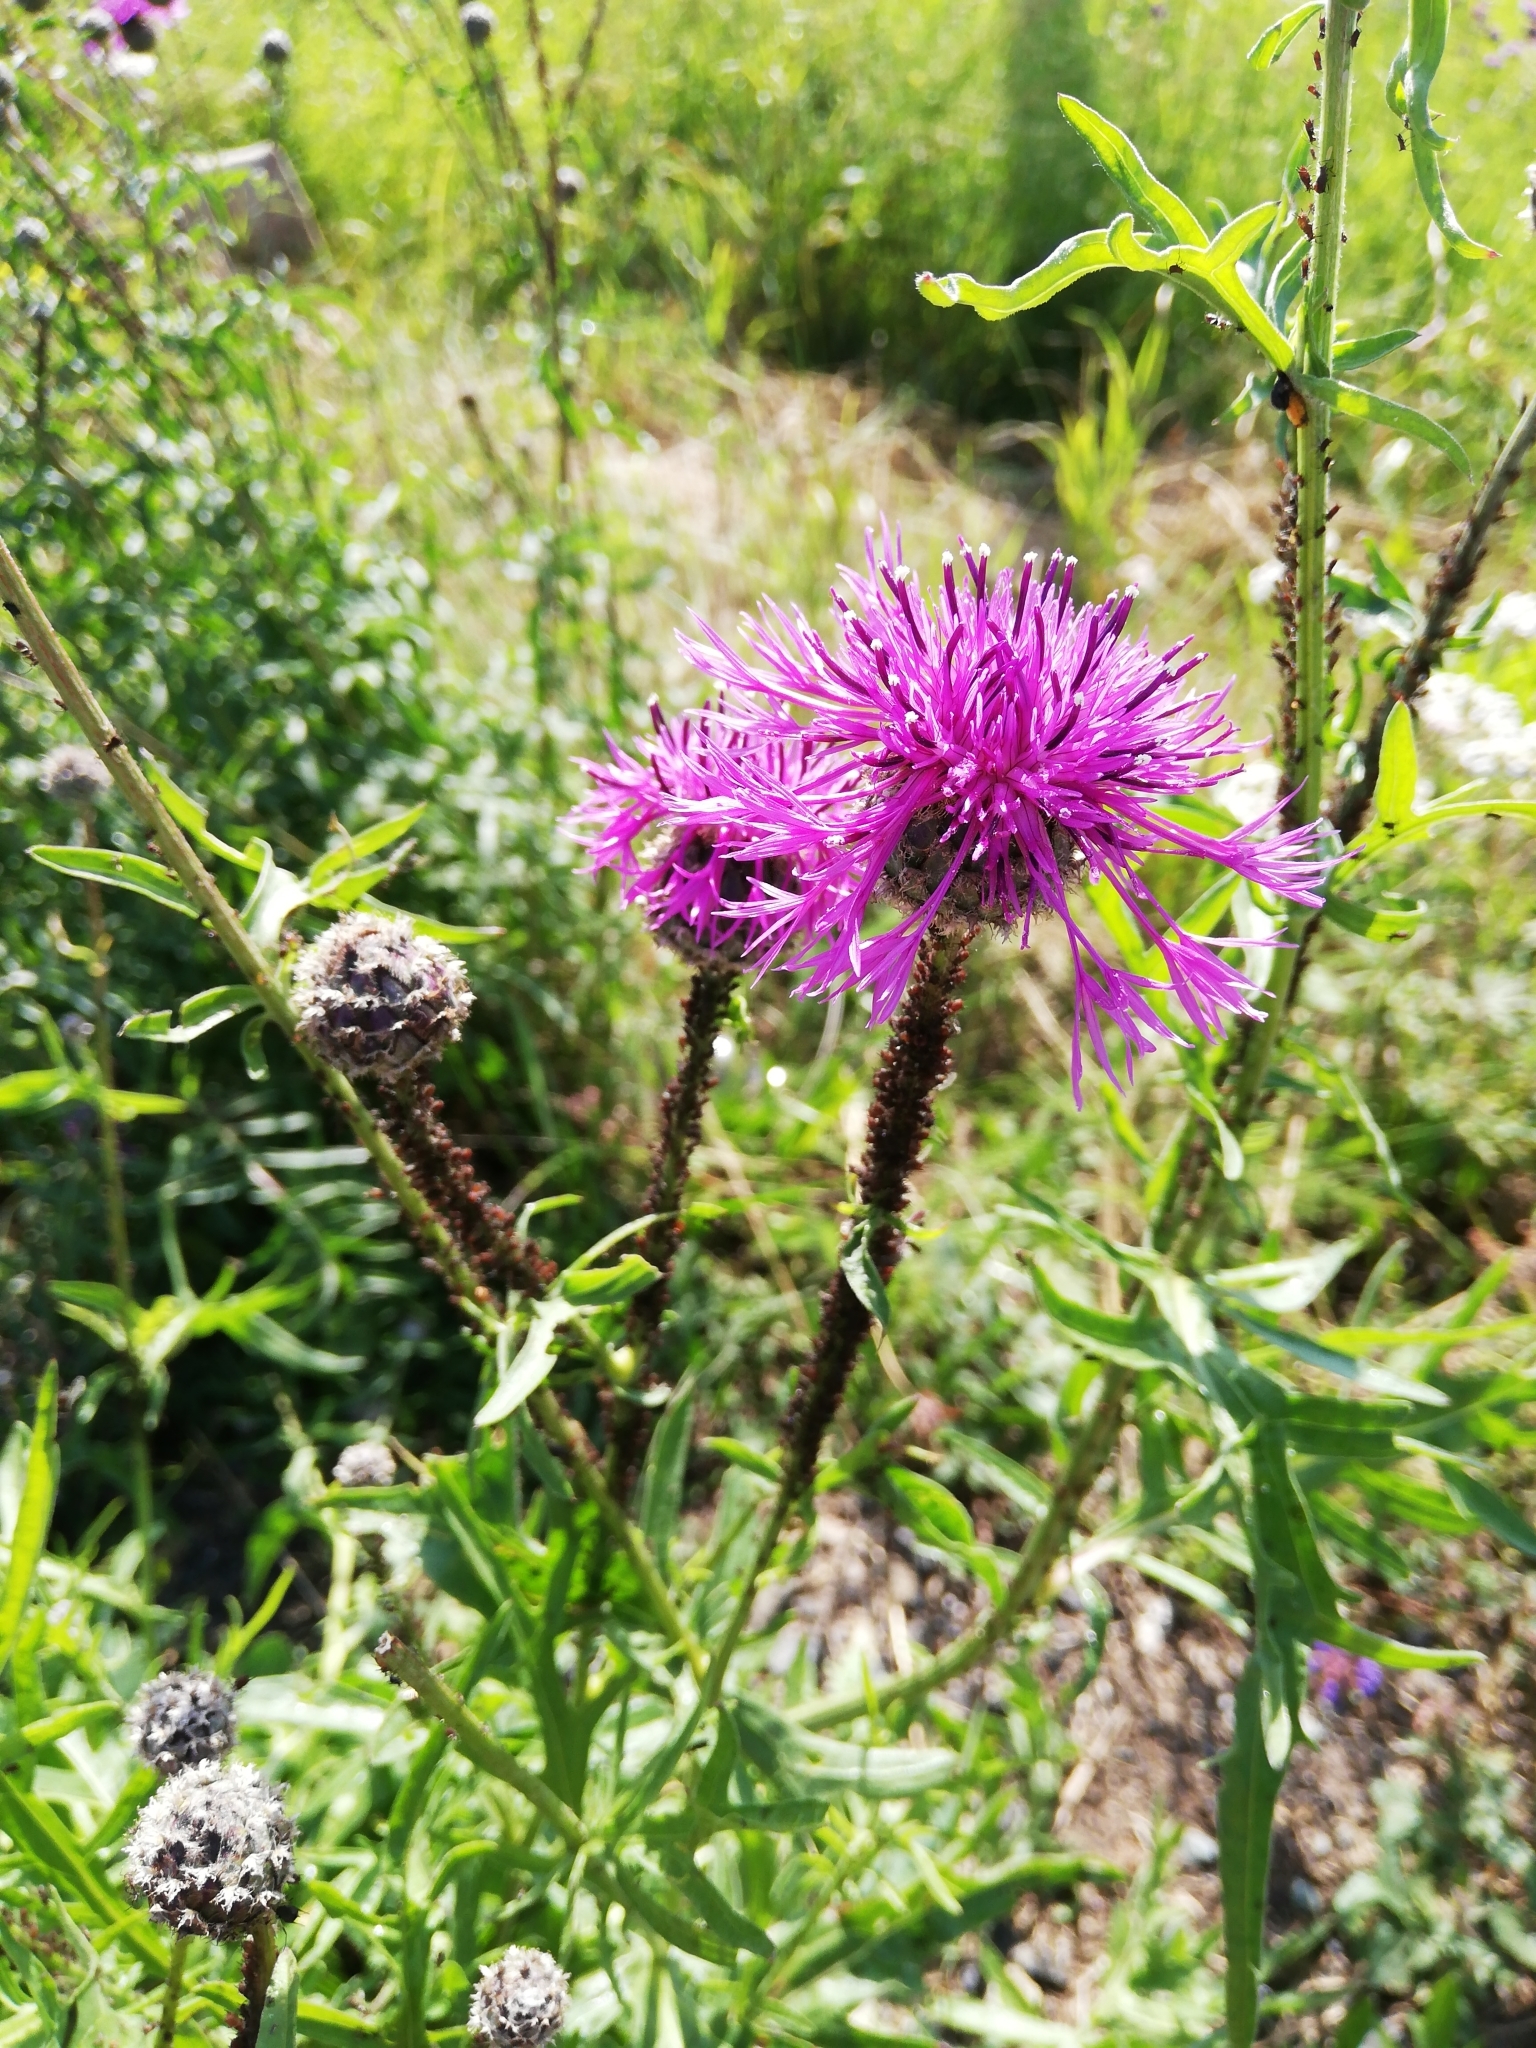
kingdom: Plantae
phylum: Tracheophyta
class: Magnoliopsida
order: Asterales
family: Asteraceae
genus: Centaurea
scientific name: Centaurea scabiosa
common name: Greater knapweed
